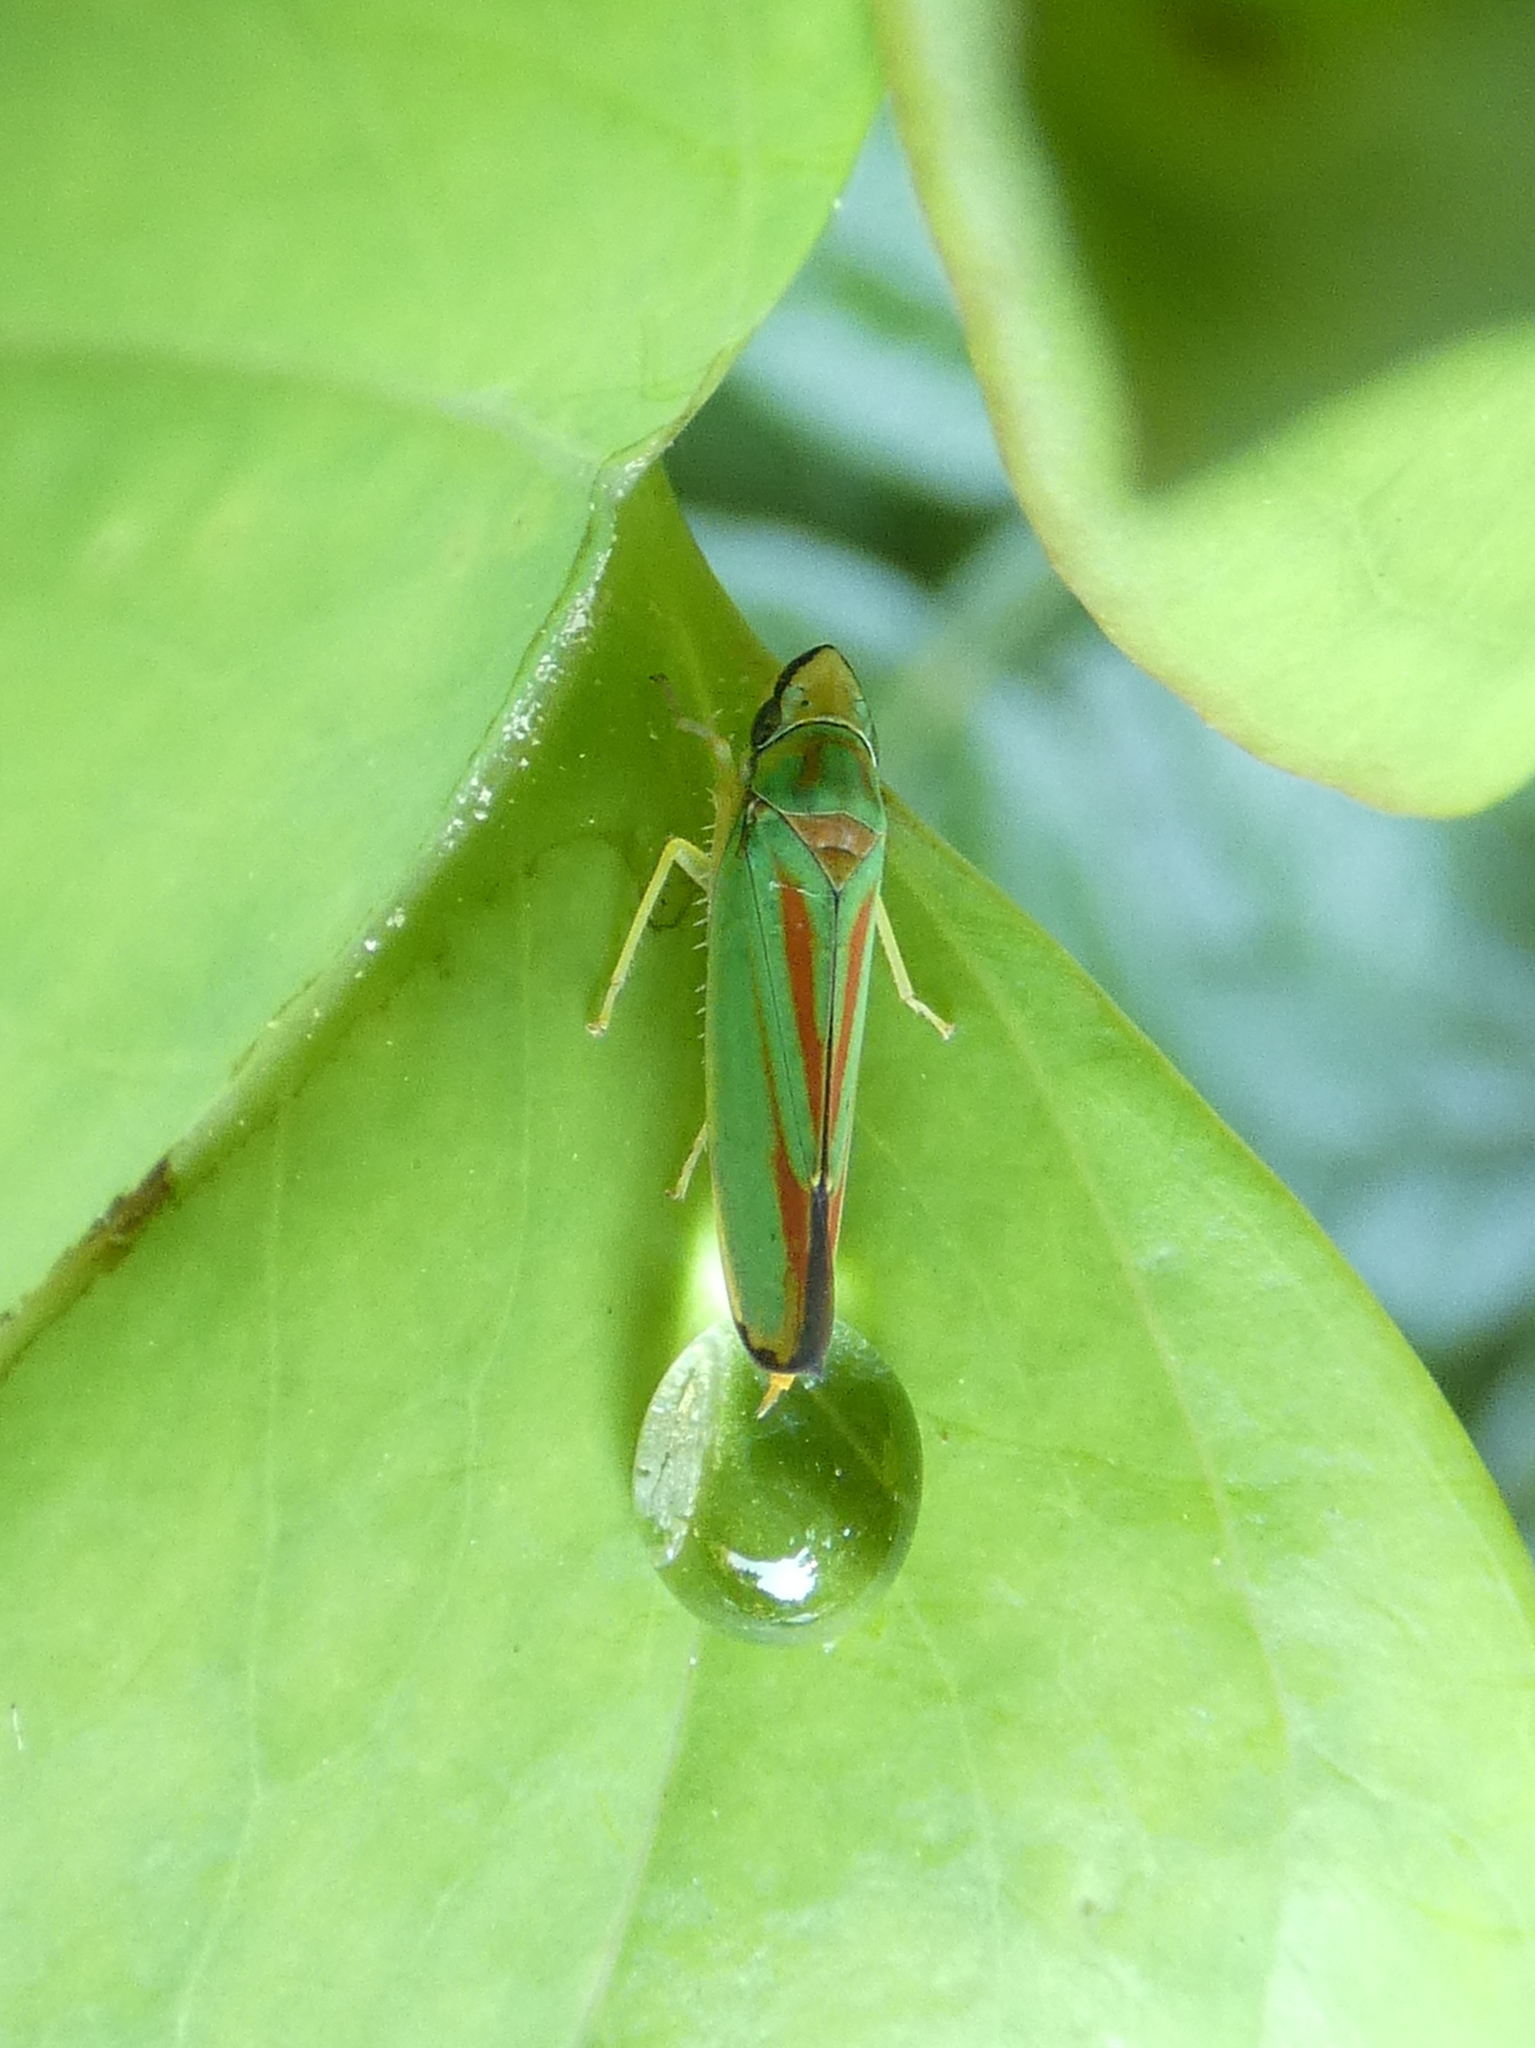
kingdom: Animalia
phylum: Arthropoda
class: Insecta
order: Hemiptera
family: Cicadellidae
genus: Graphocephala
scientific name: Graphocephala fennahi
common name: Rhododendron leafhopper
